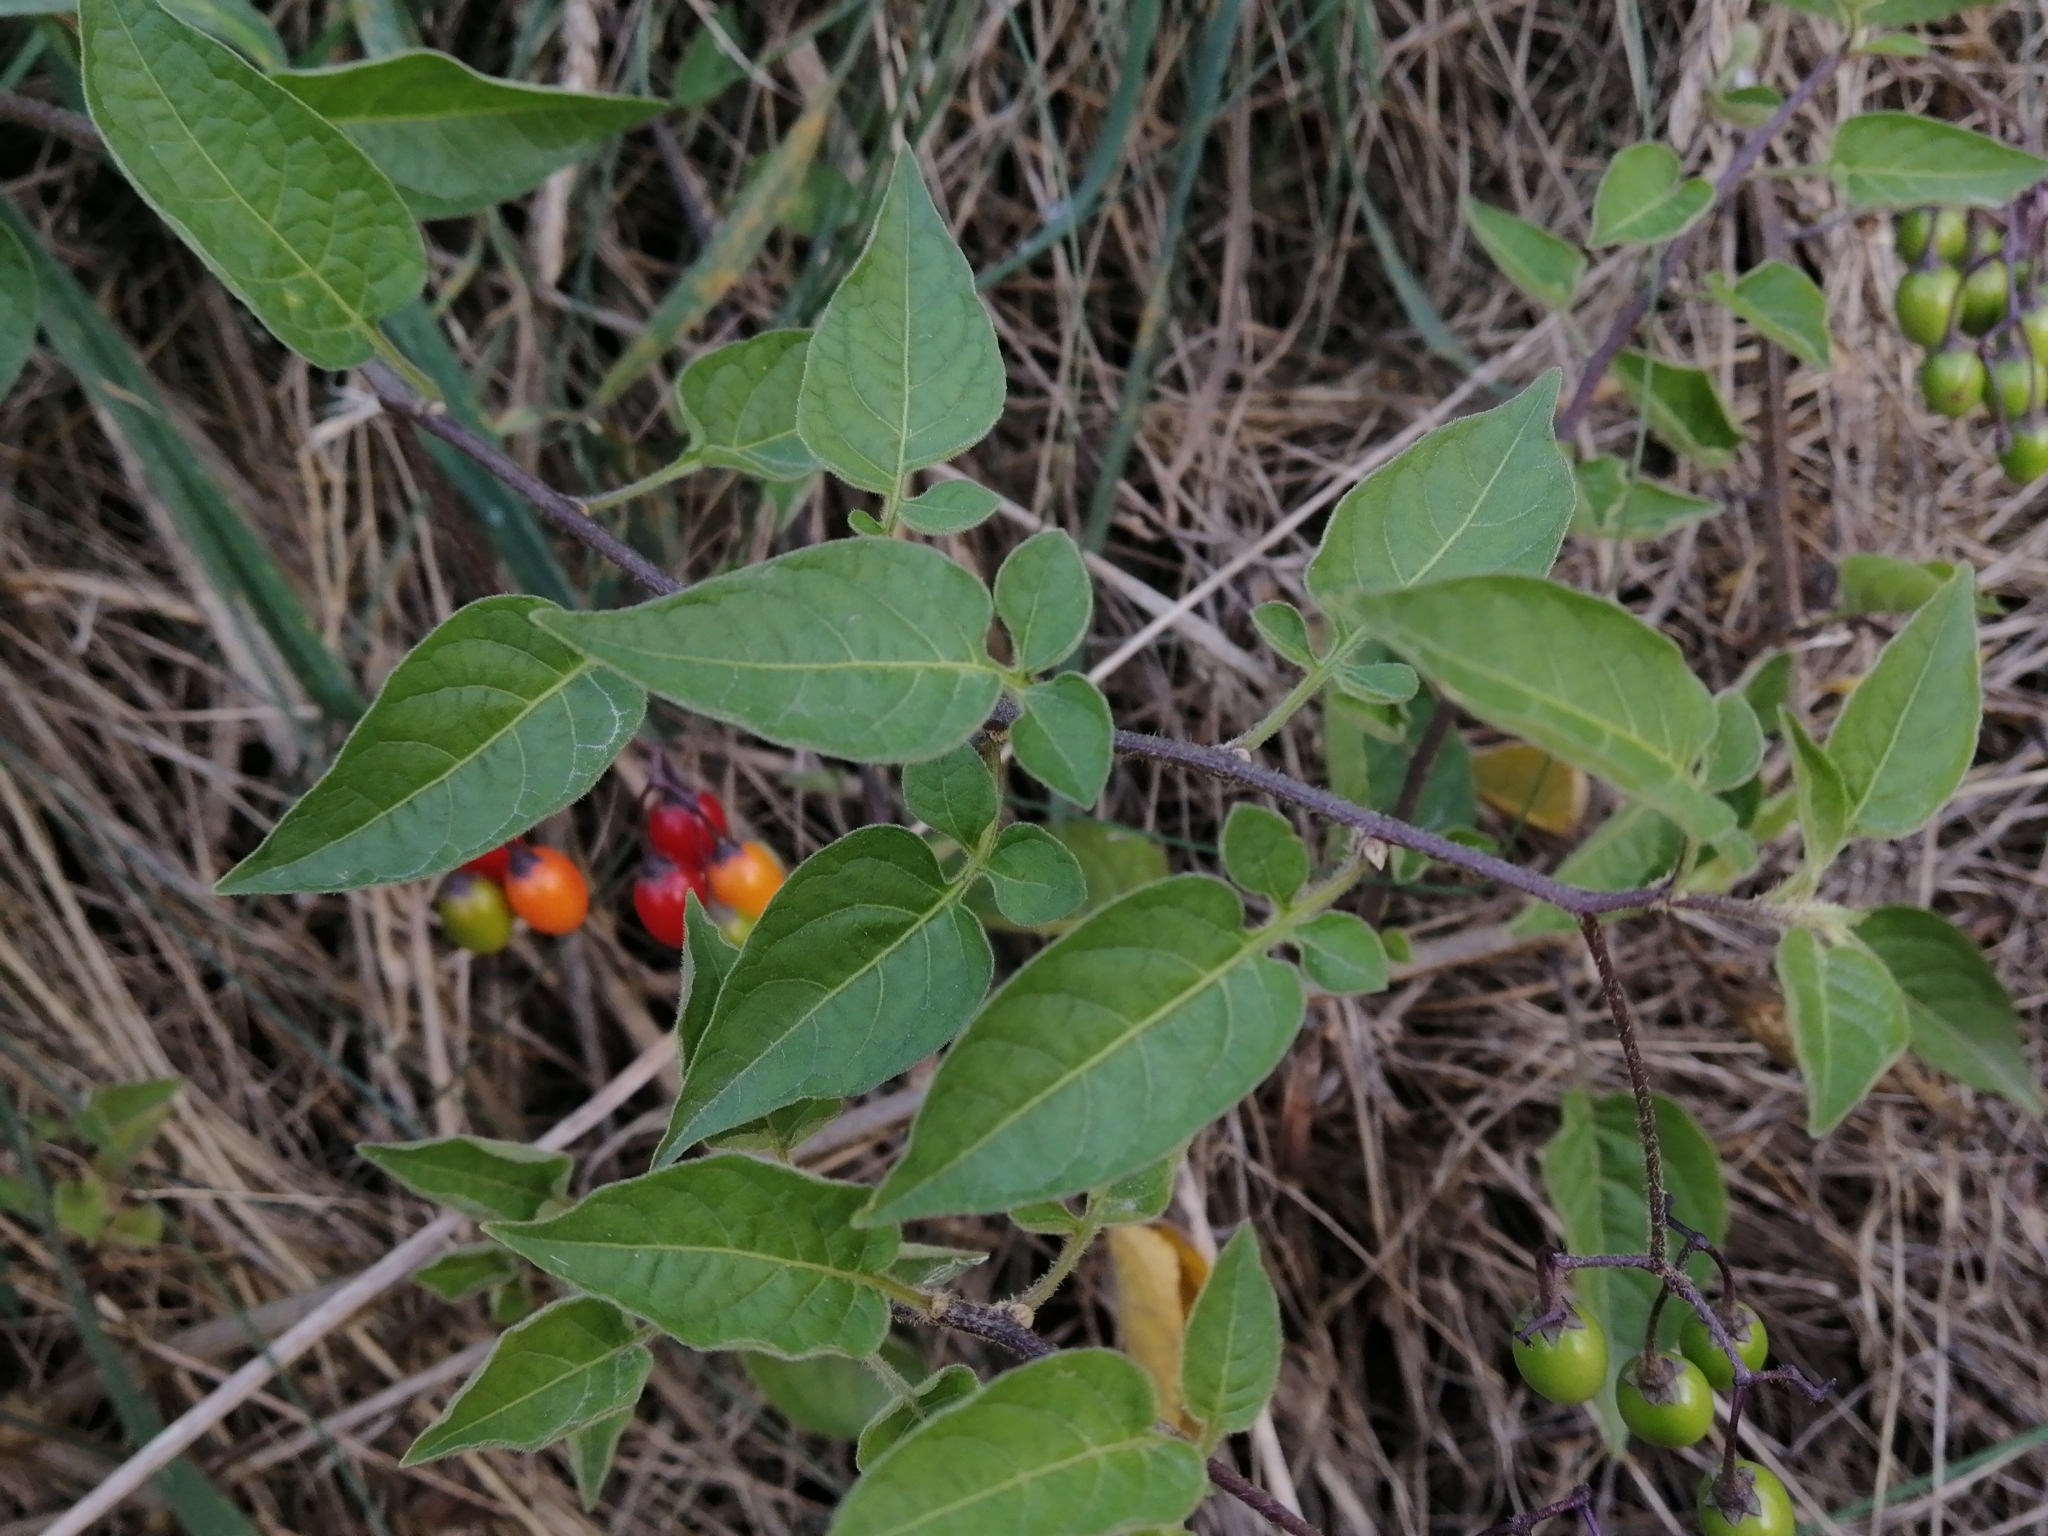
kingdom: Plantae
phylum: Tracheophyta
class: Magnoliopsida
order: Solanales
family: Solanaceae
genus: Solanum
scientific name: Solanum dulcamara
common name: Climbing nightshade
